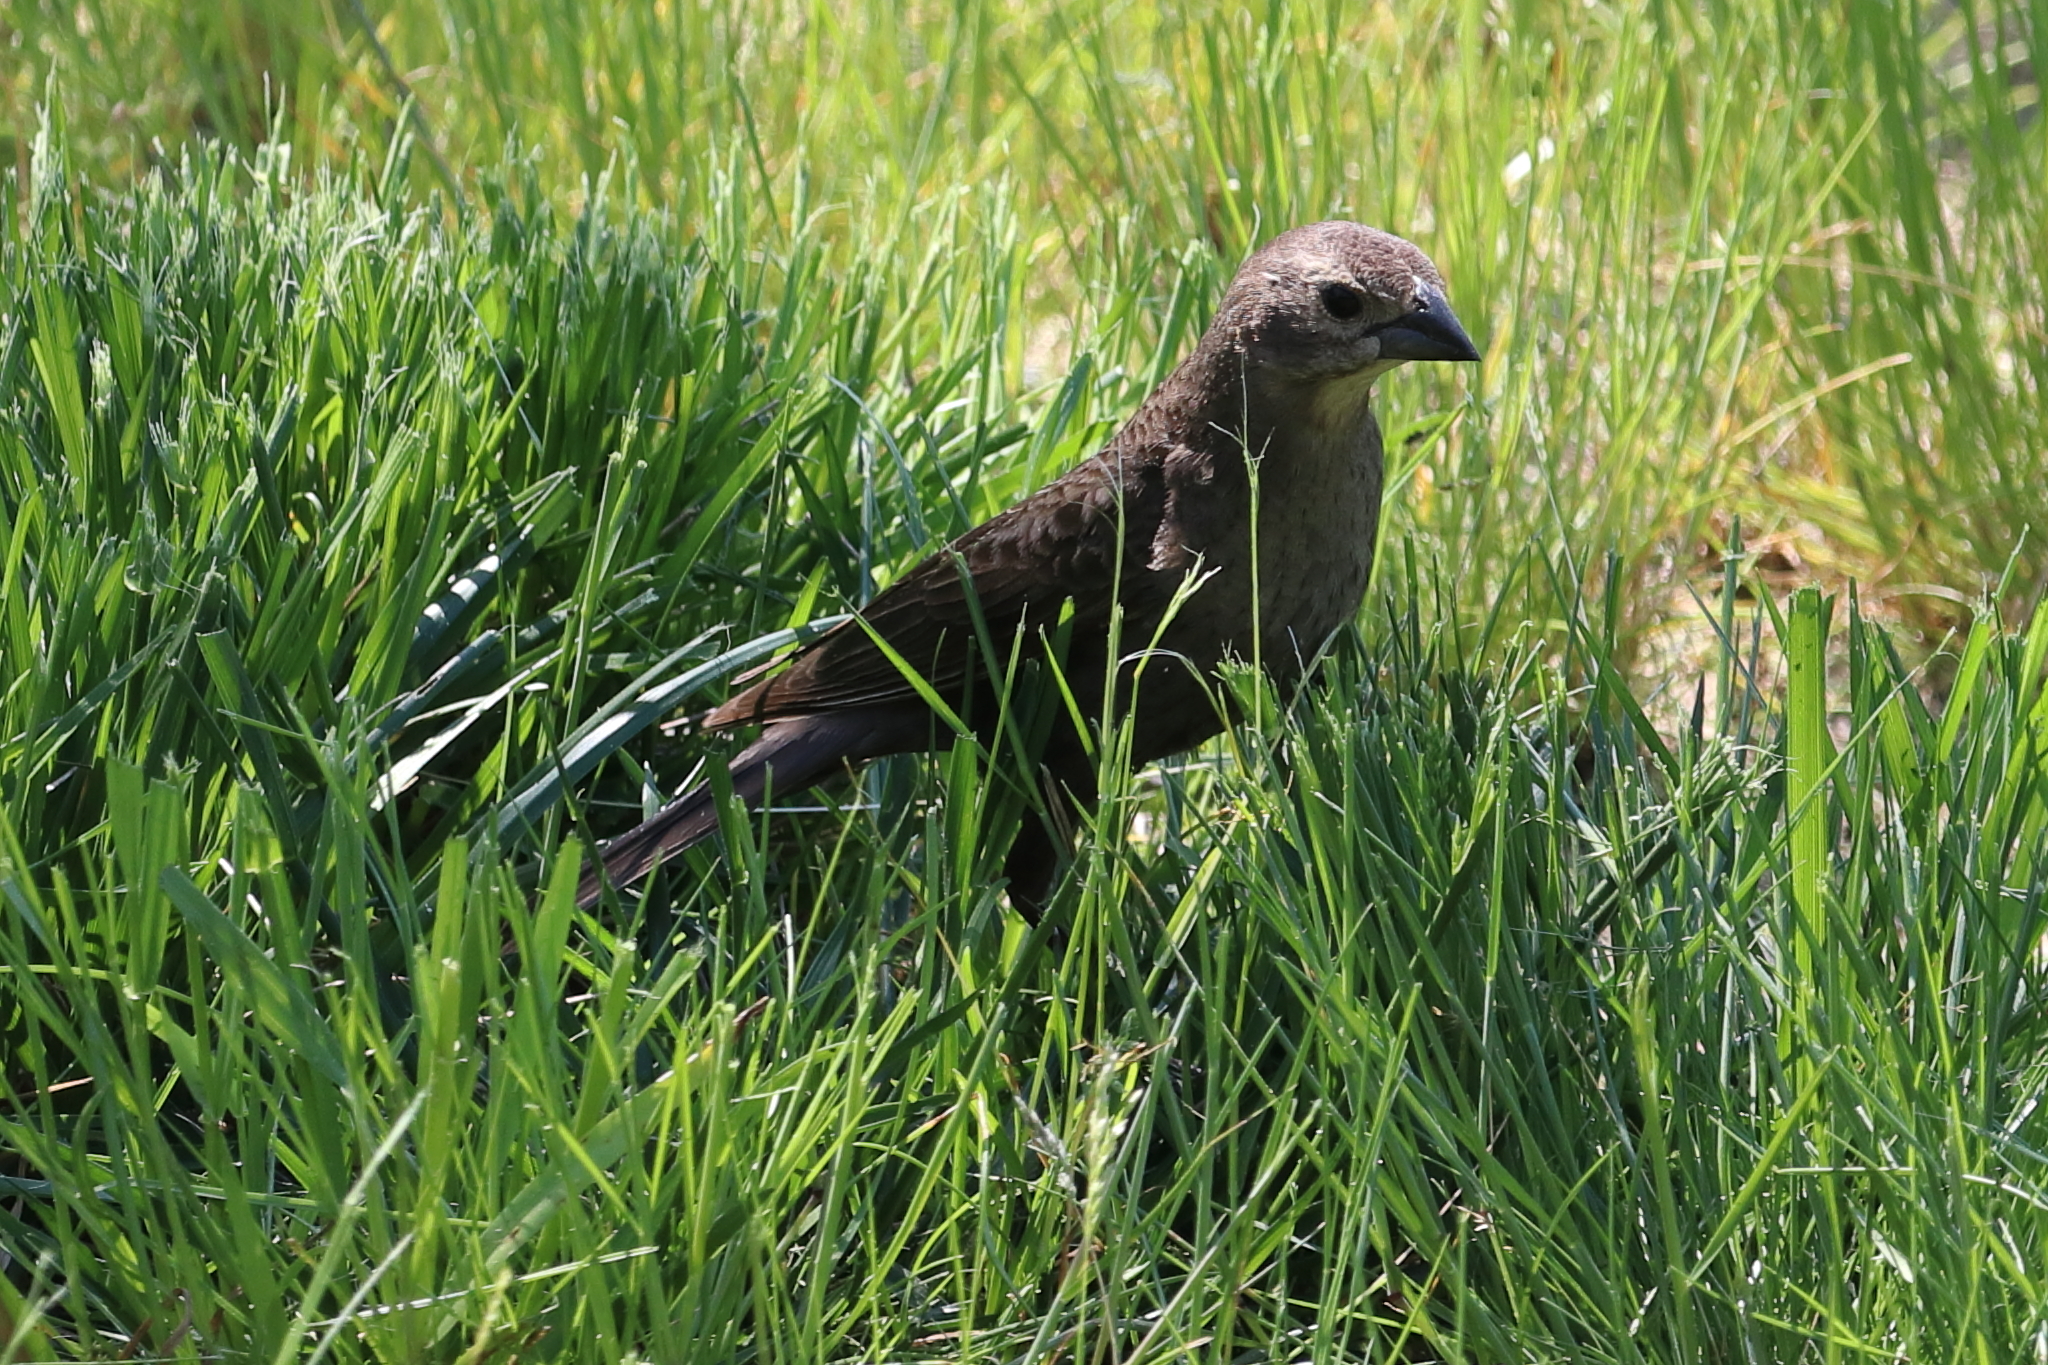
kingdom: Animalia
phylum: Chordata
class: Aves
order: Passeriformes
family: Icteridae
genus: Molothrus
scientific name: Molothrus ater
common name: Brown-headed cowbird
